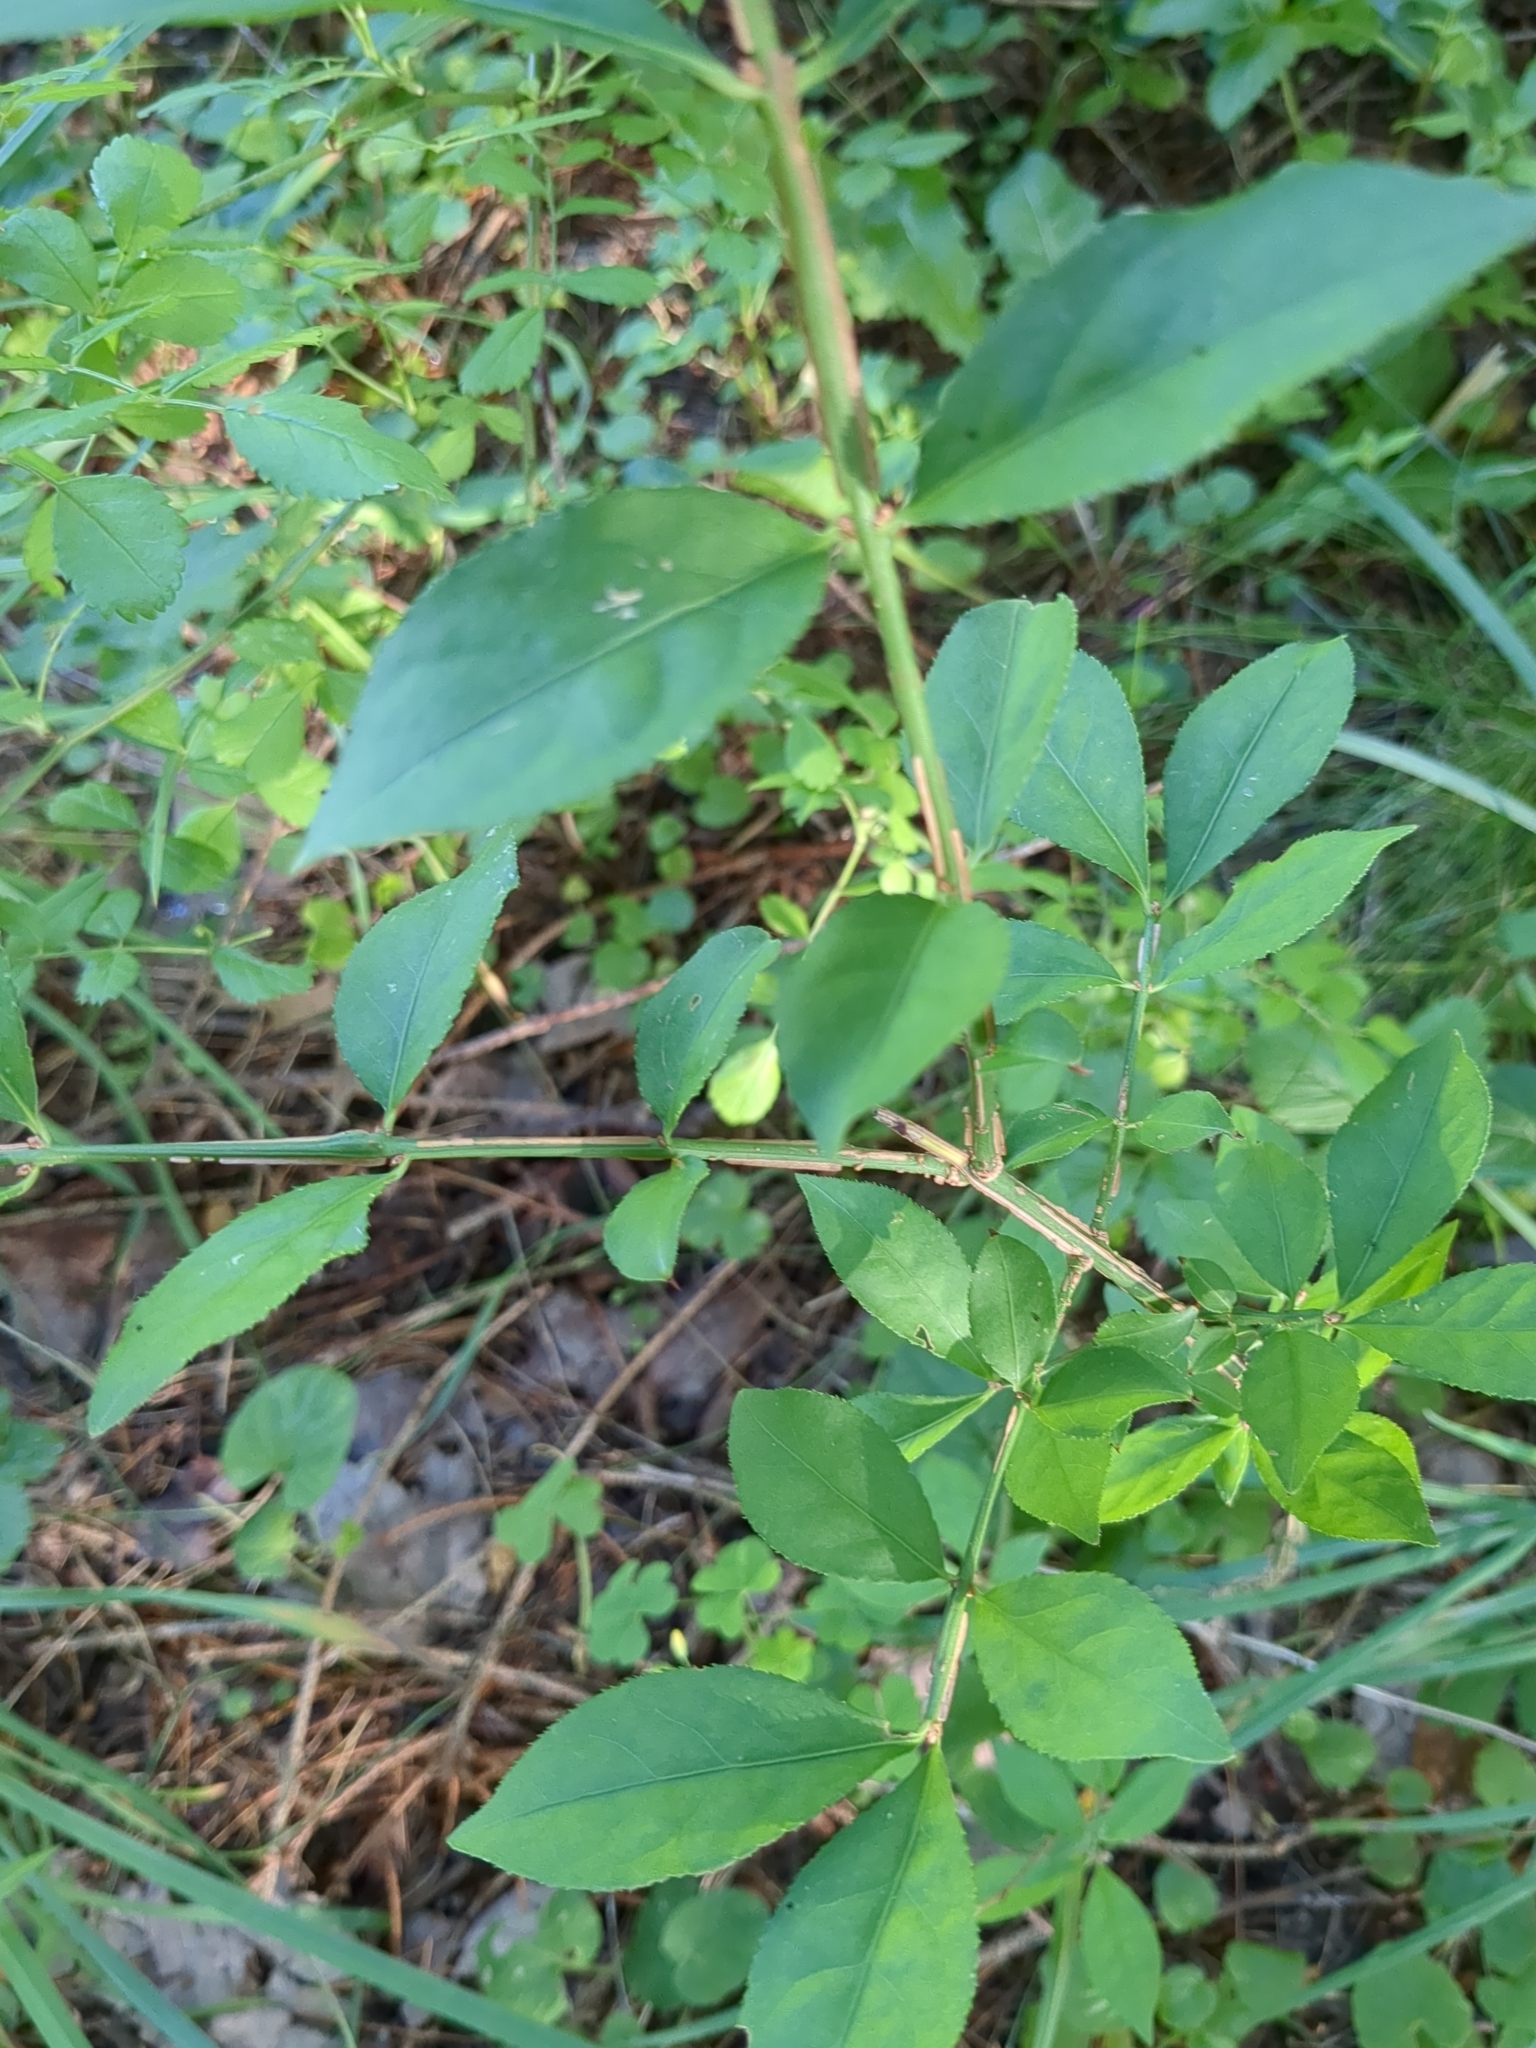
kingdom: Plantae
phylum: Tracheophyta
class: Magnoliopsida
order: Celastrales
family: Celastraceae
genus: Euonymus
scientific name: Euonymus alatus
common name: Winged euonymus
